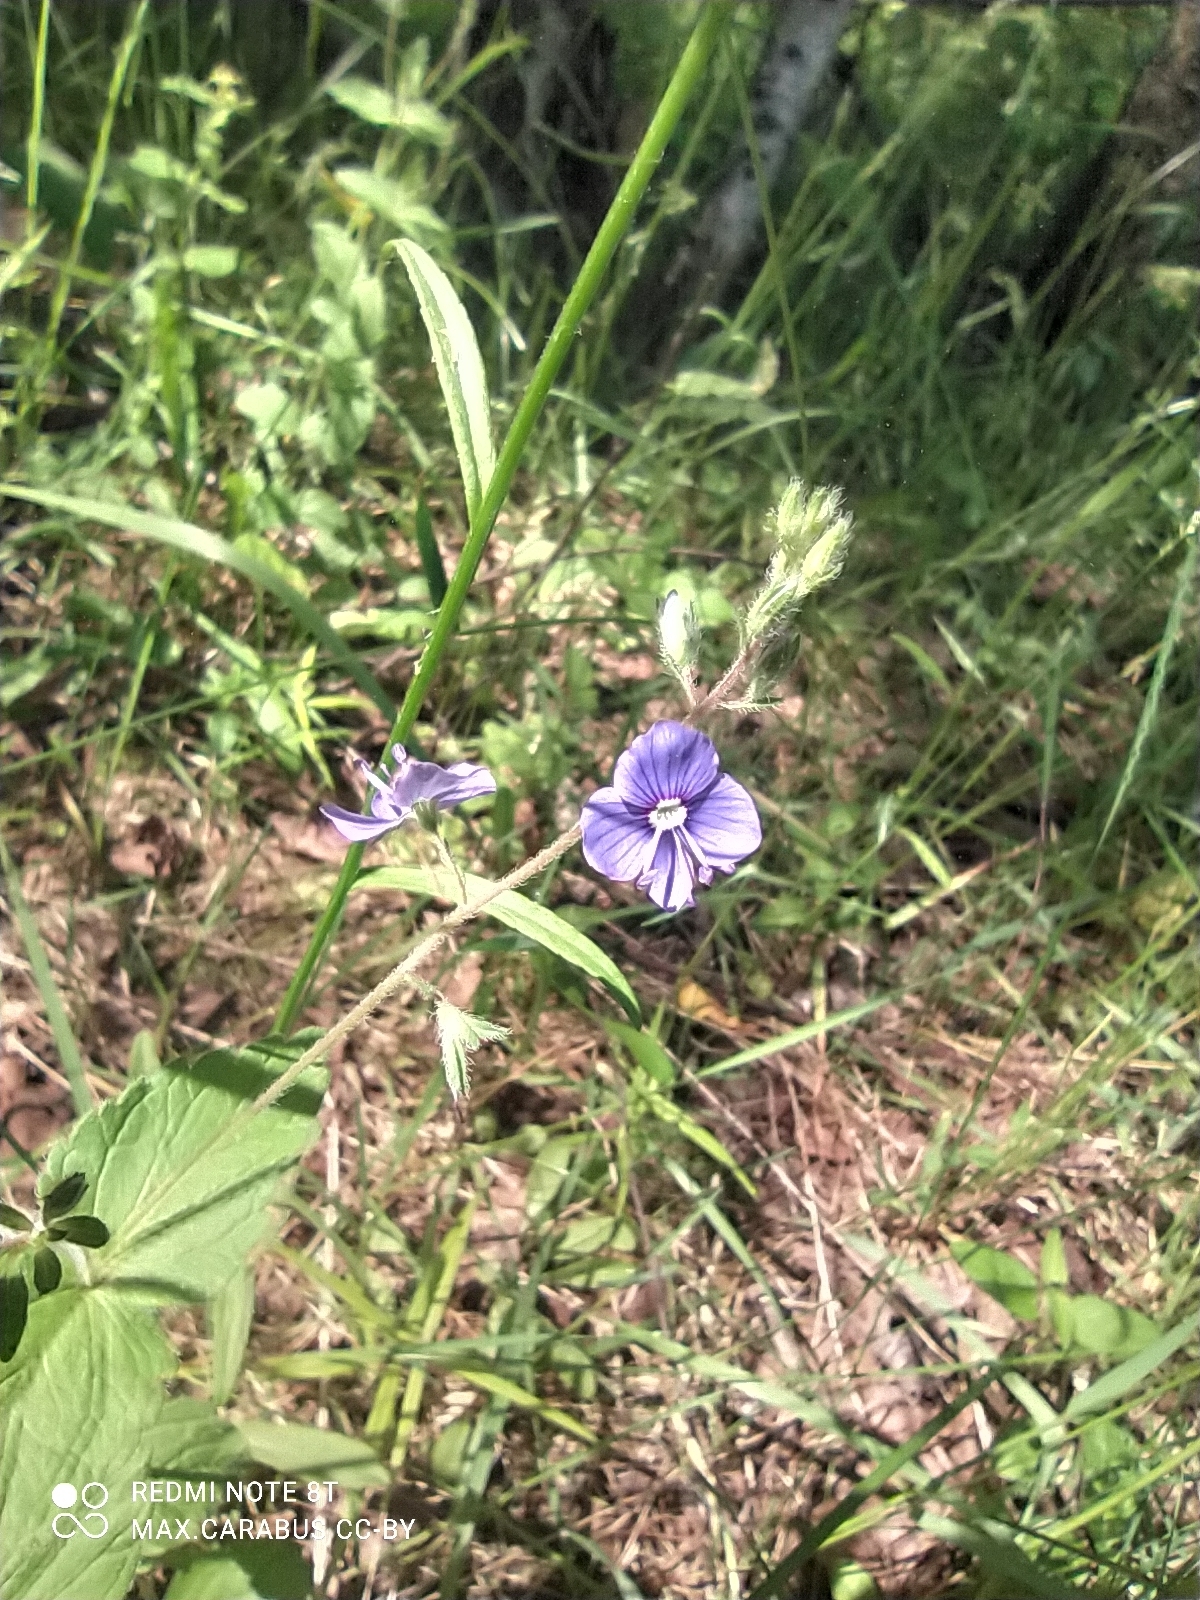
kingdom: Plantae
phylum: Tracheophyta
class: Magnoliopsida
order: Lamiales
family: Plantaginaceae
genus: Veronica
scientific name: Veronica chamaedrys
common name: Germander speedwell
